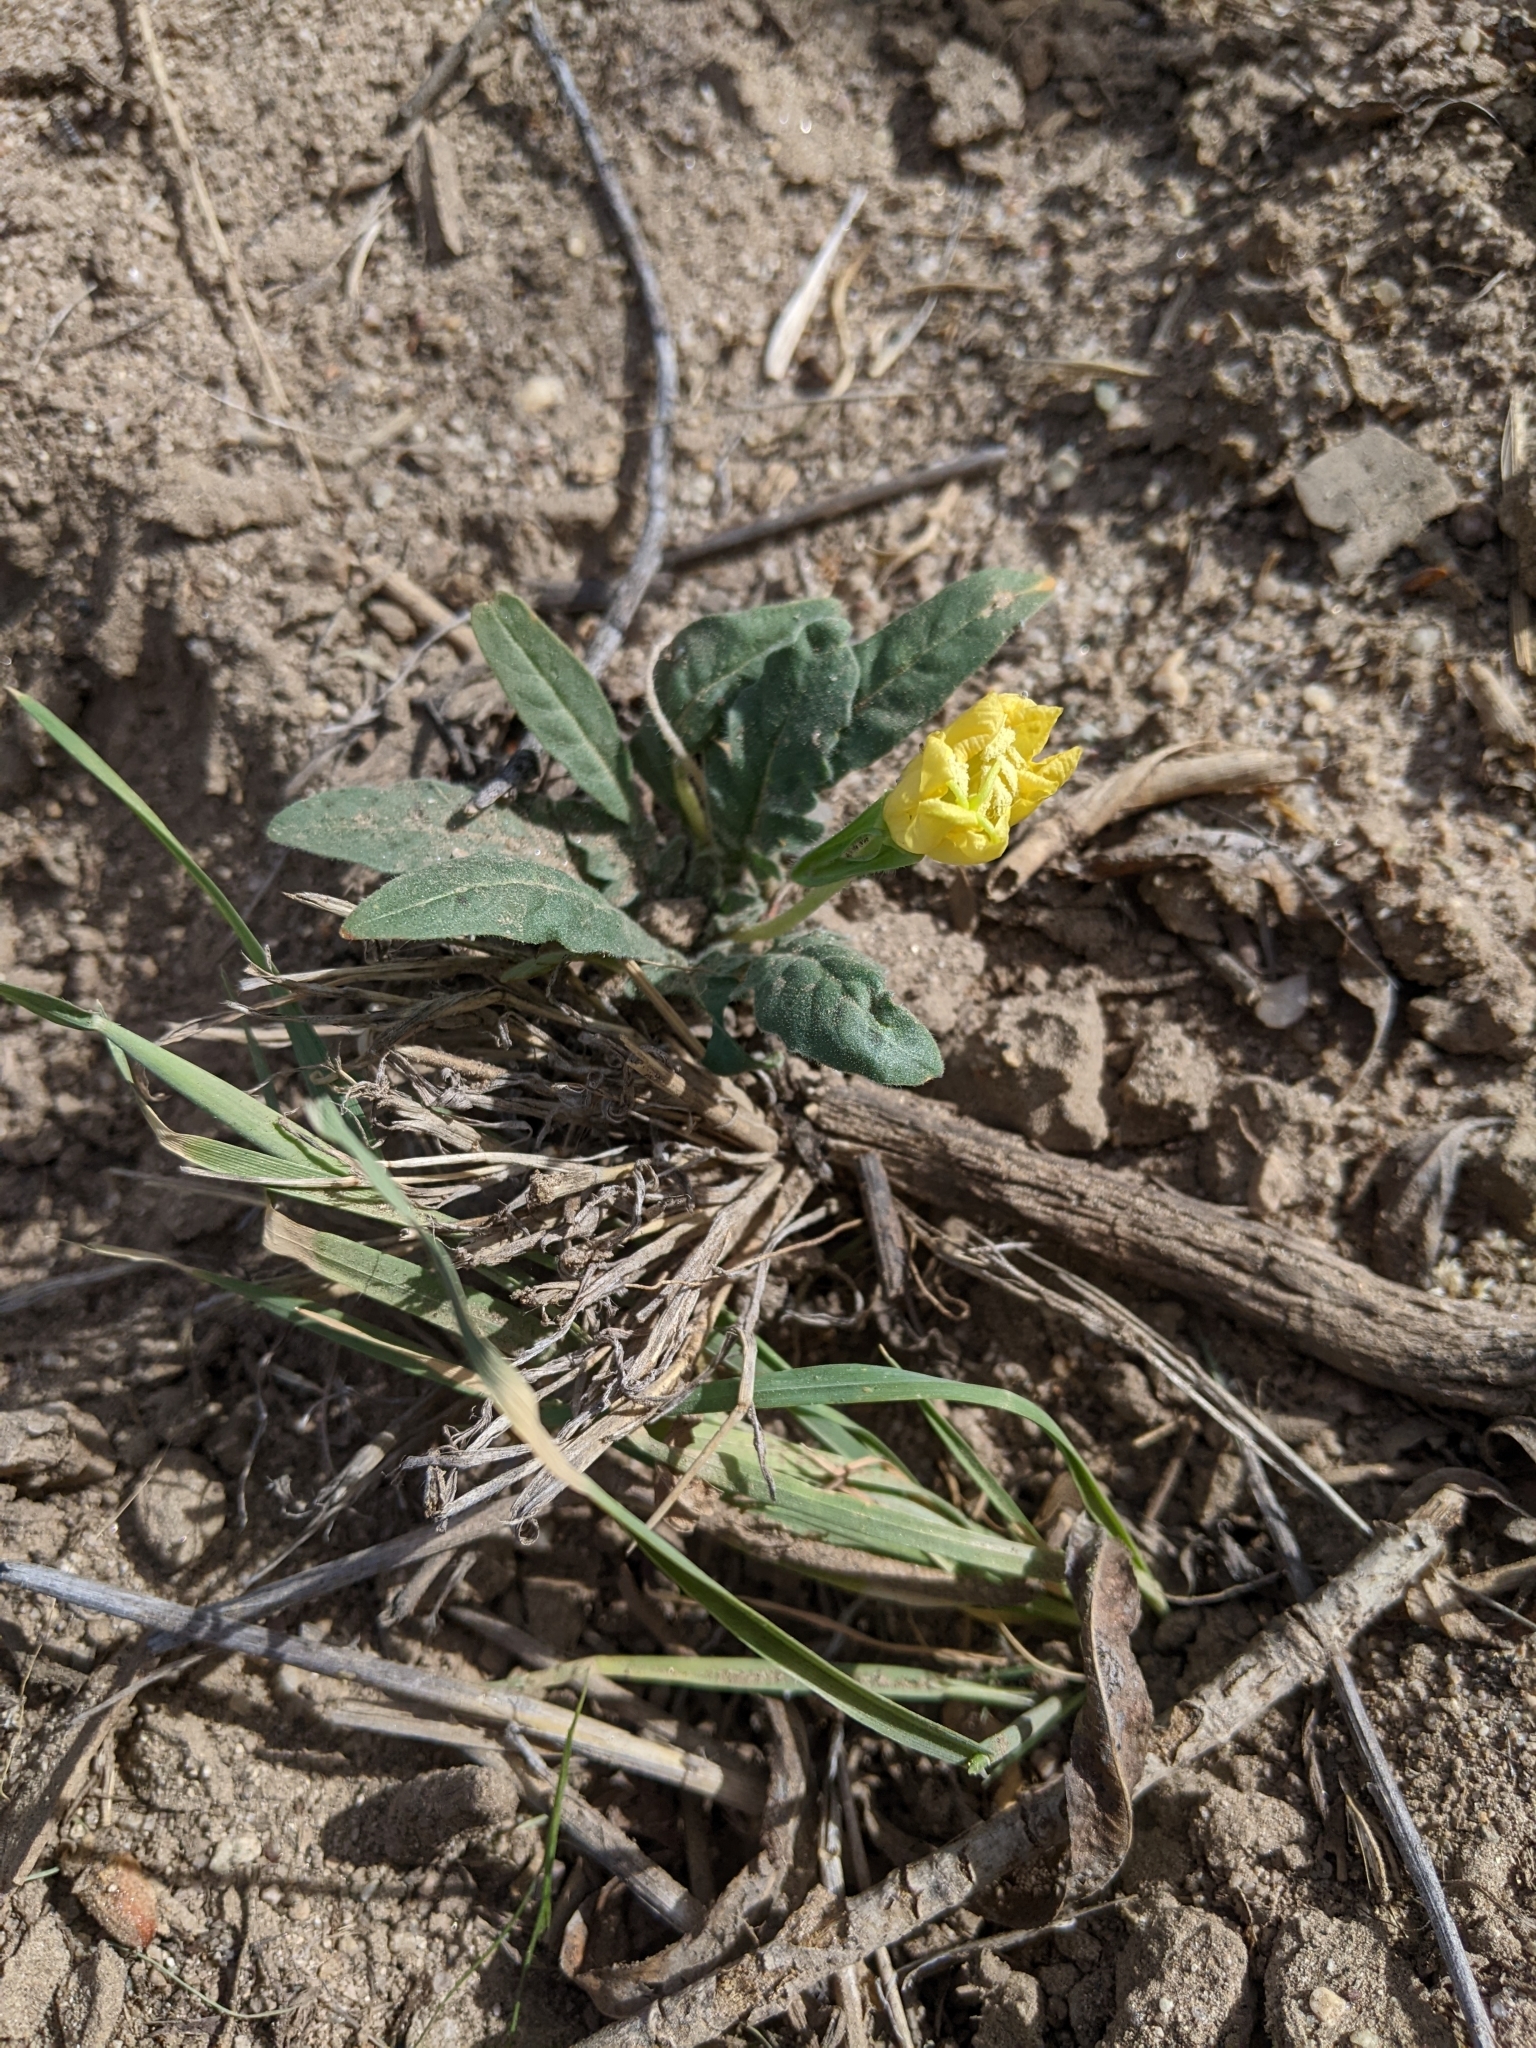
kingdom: Plantae
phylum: Tracheophyta
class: Magnoliopsida
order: Myrtales
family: Onagraceae
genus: Oenothera
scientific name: Oenothera primiveris
